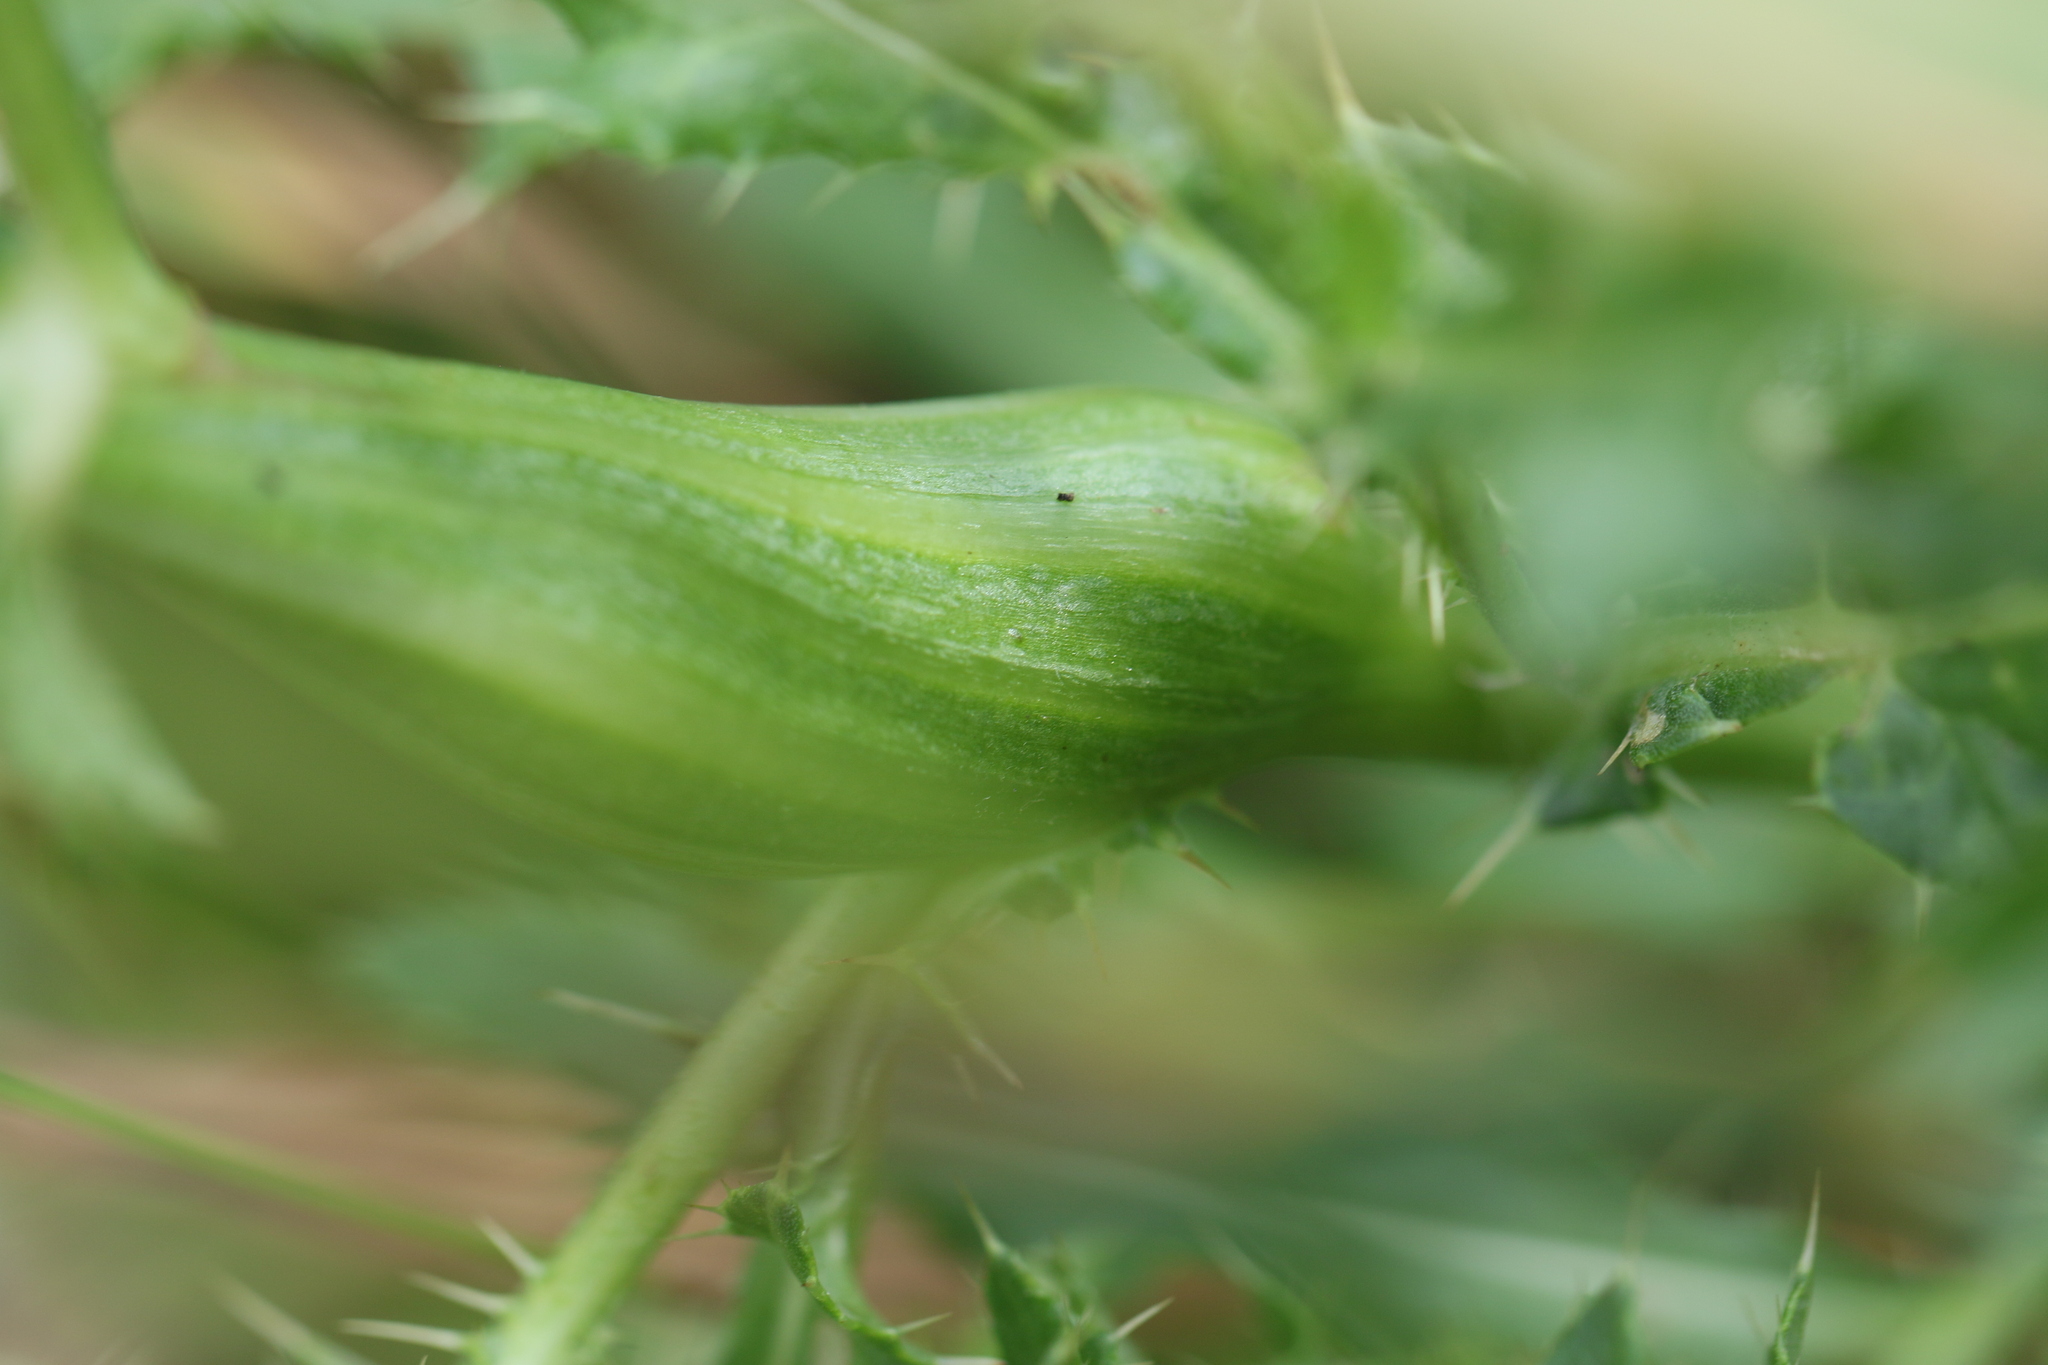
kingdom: Animalia
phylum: Arthropoda
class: Insecta
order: Diptera
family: Tephritidae
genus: Urophora
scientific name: Urophora cardui
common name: Fruit fly
